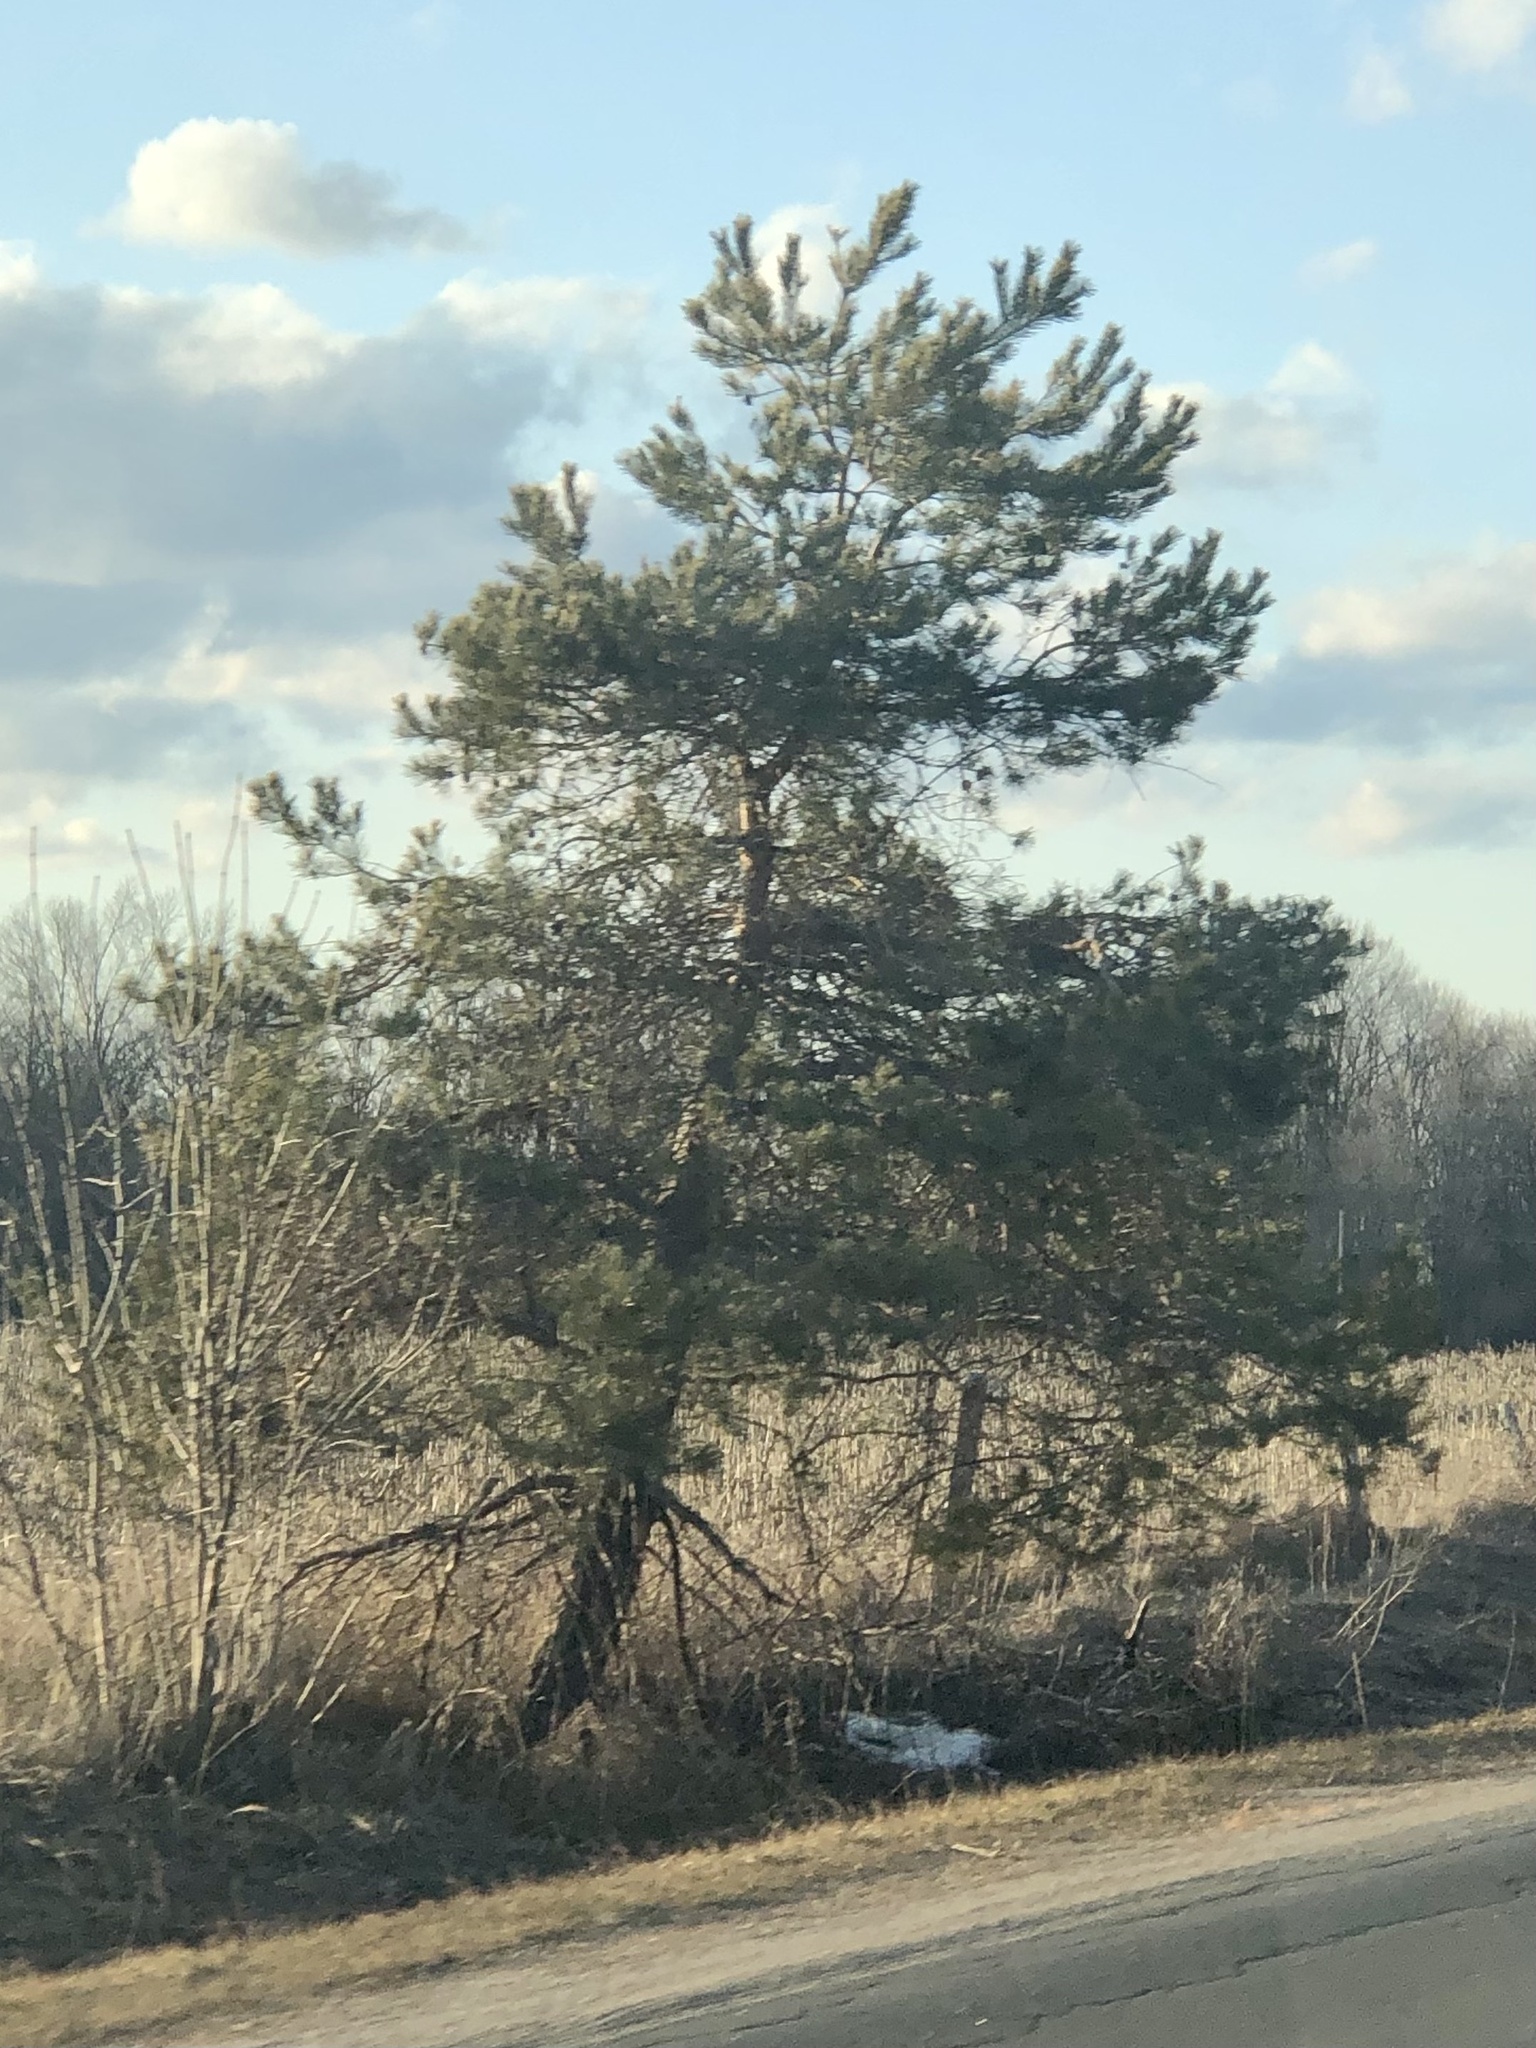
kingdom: Plantae
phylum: Tracheophyta
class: Pinopsida
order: Pinales
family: Pinaceae
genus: Pinus
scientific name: Pinus sylvestris
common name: Scots pine
